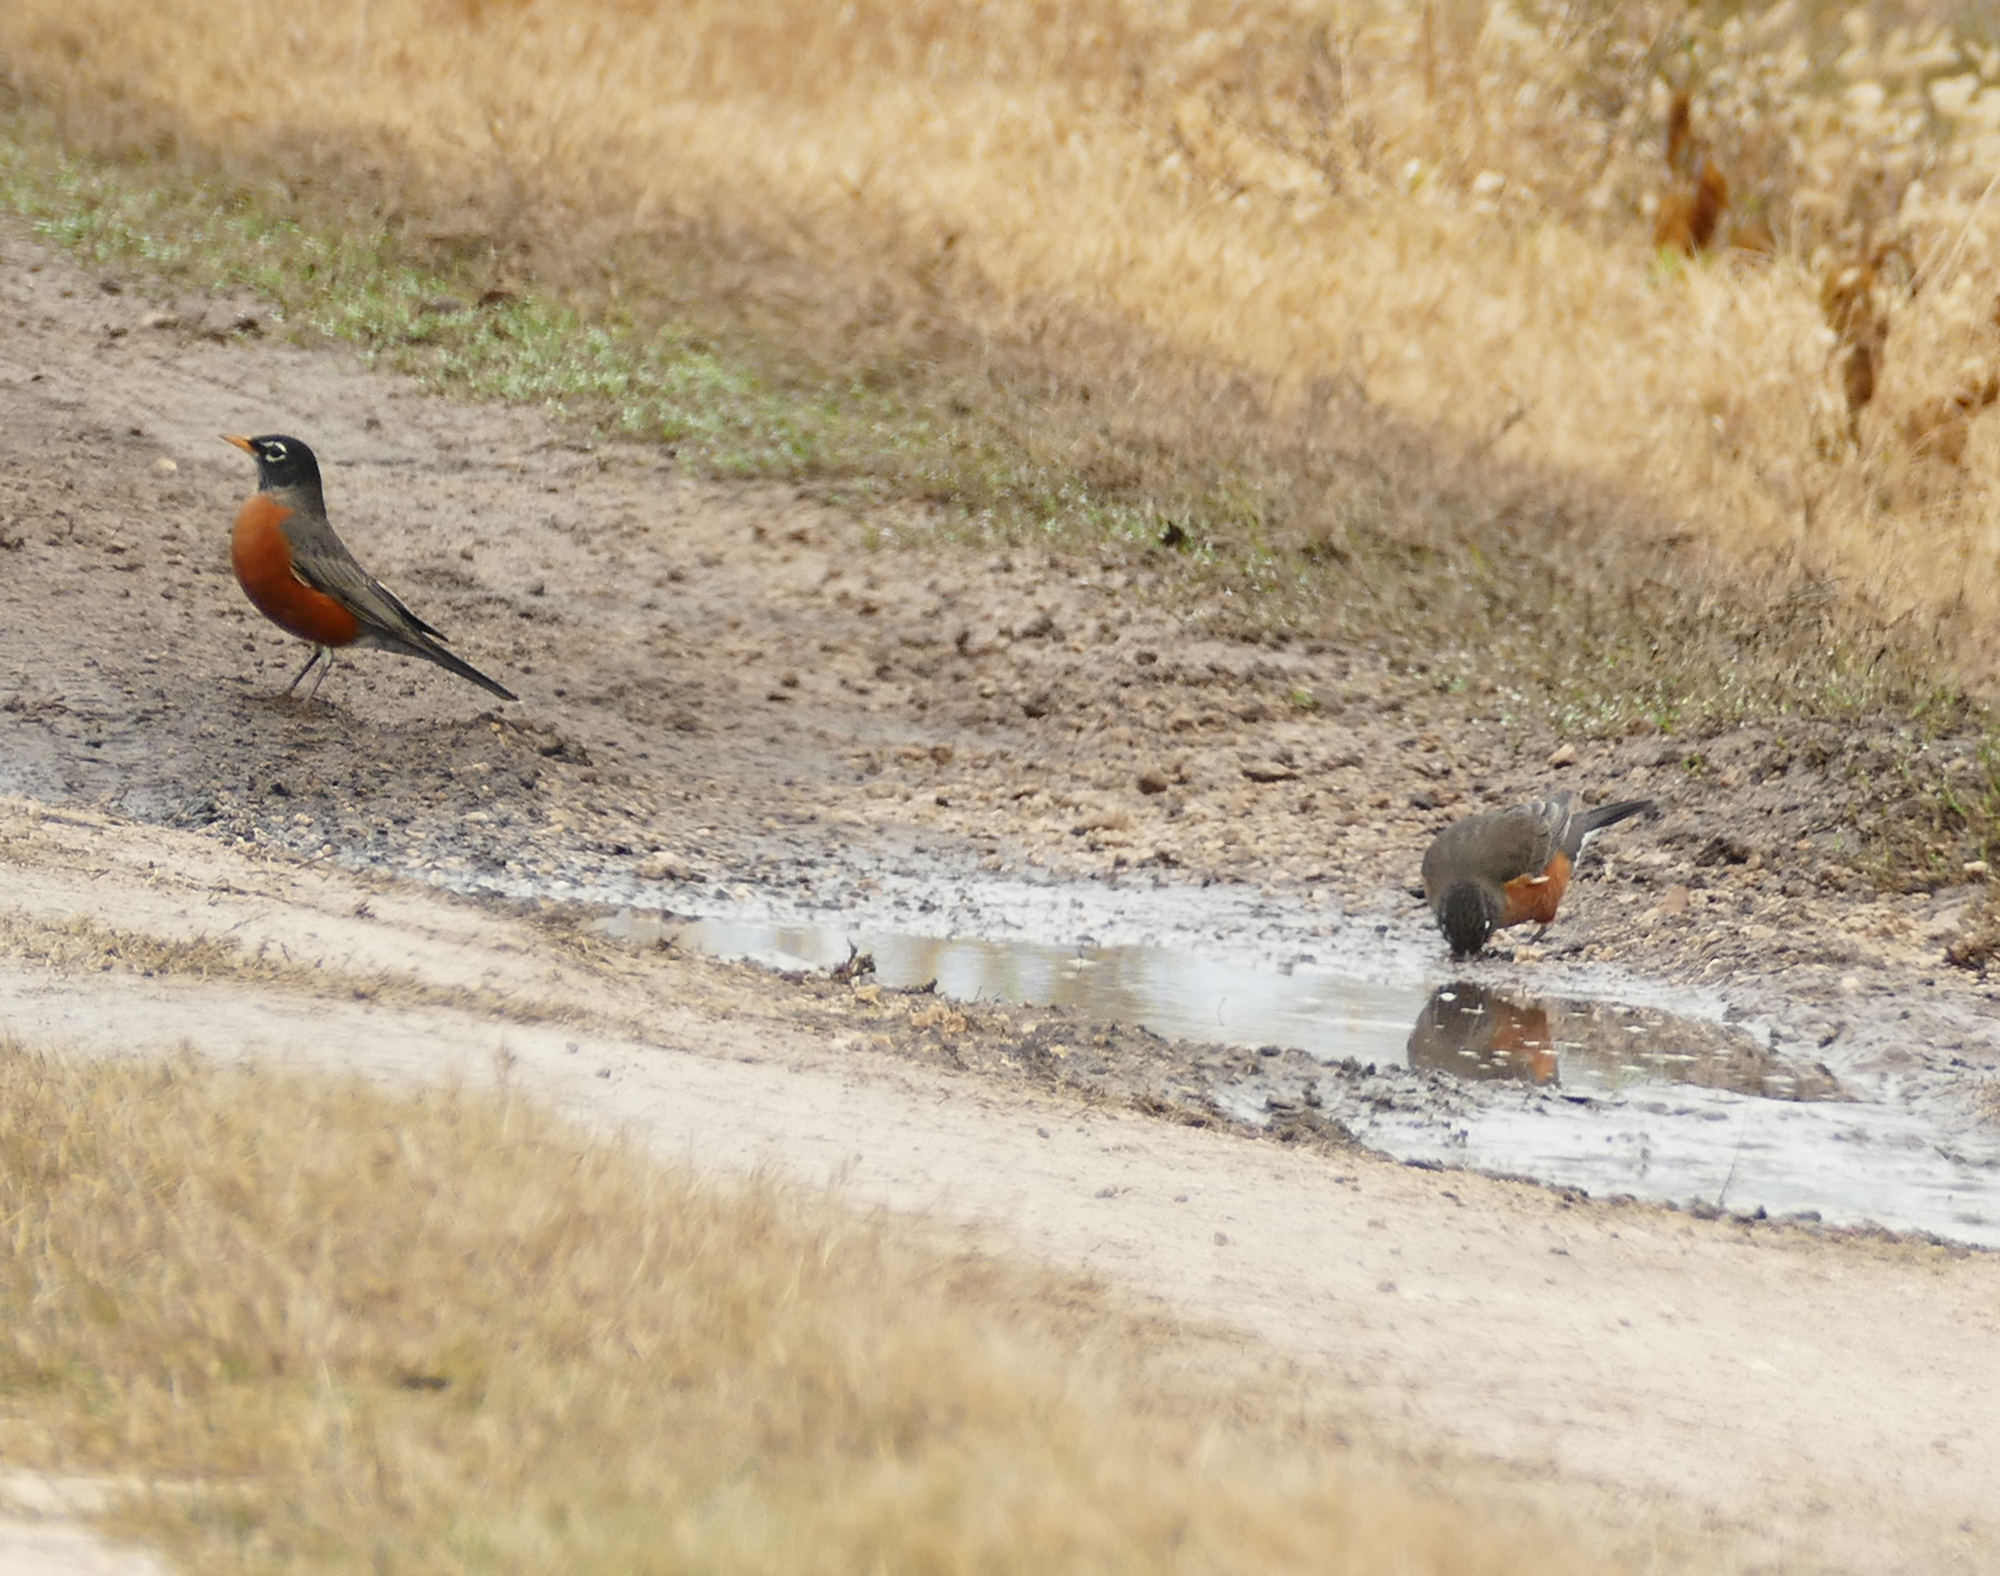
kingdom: Animalia
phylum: Chordata
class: Aves
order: Passeriformes
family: Turdidae
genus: Turdus
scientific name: Turdus migratorius
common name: American robin
